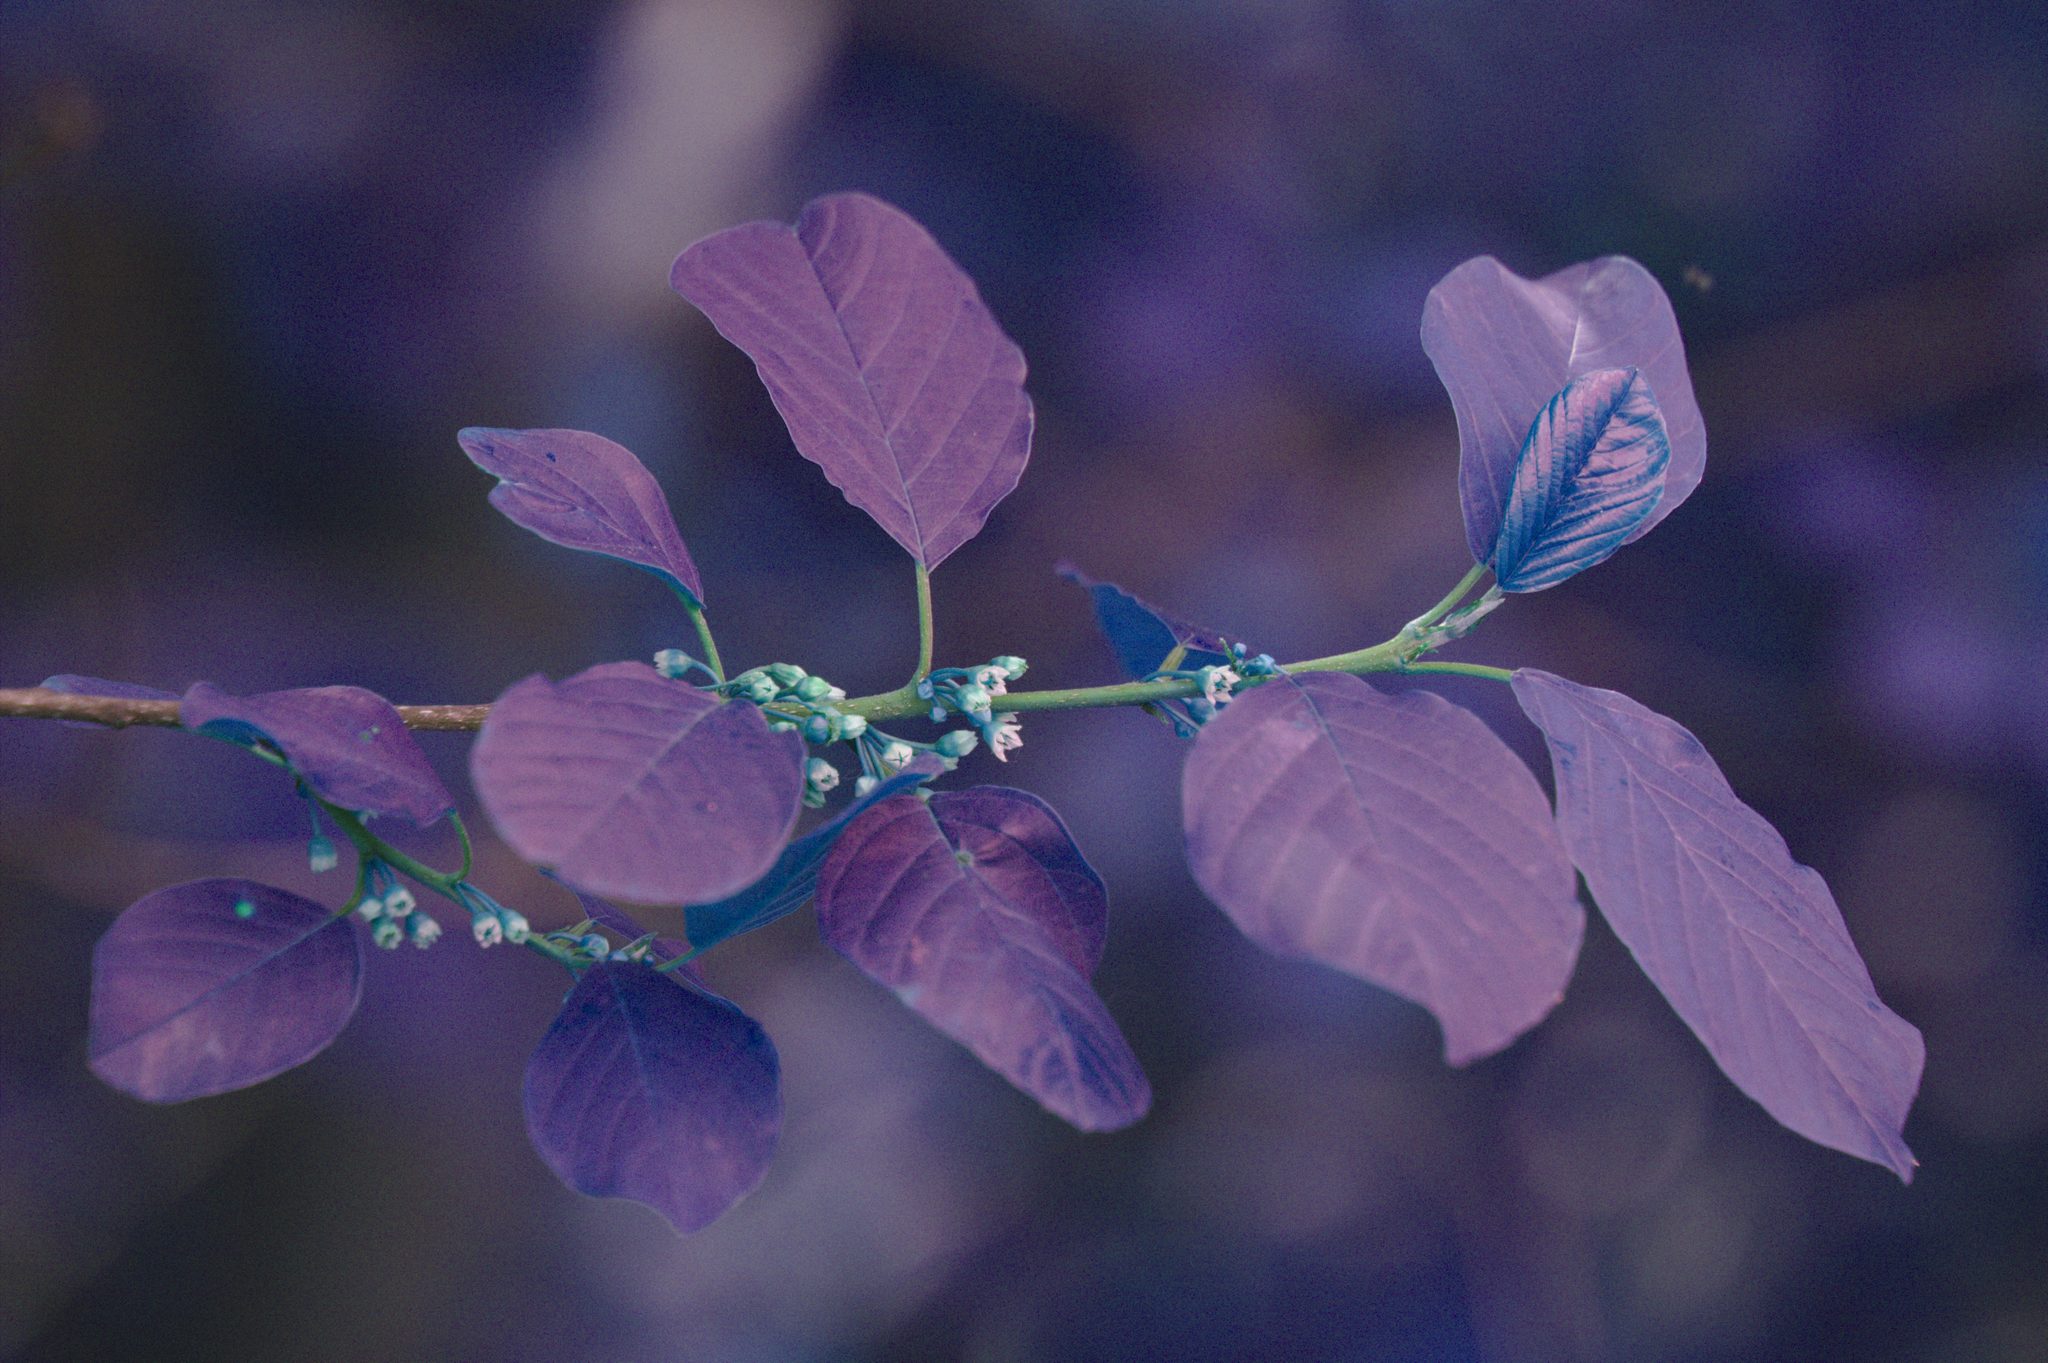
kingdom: Plantae
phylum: Tracheophyta
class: Magnoliopsida
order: Rosales
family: Rhamnaceae
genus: Frangula
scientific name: Frangula alnus
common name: Alder buckthorn
